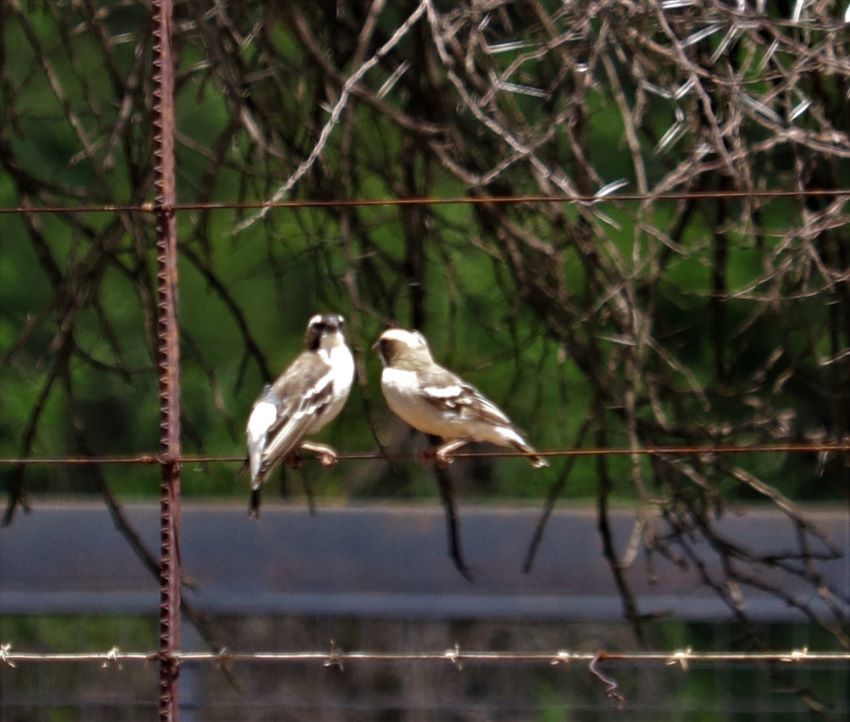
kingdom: Animalia
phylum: Chordata
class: Aves
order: Passeriformes
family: Passeridae
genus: Plocepasser
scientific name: Plocepasser mahali
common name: White-browed sparrow-weaver
